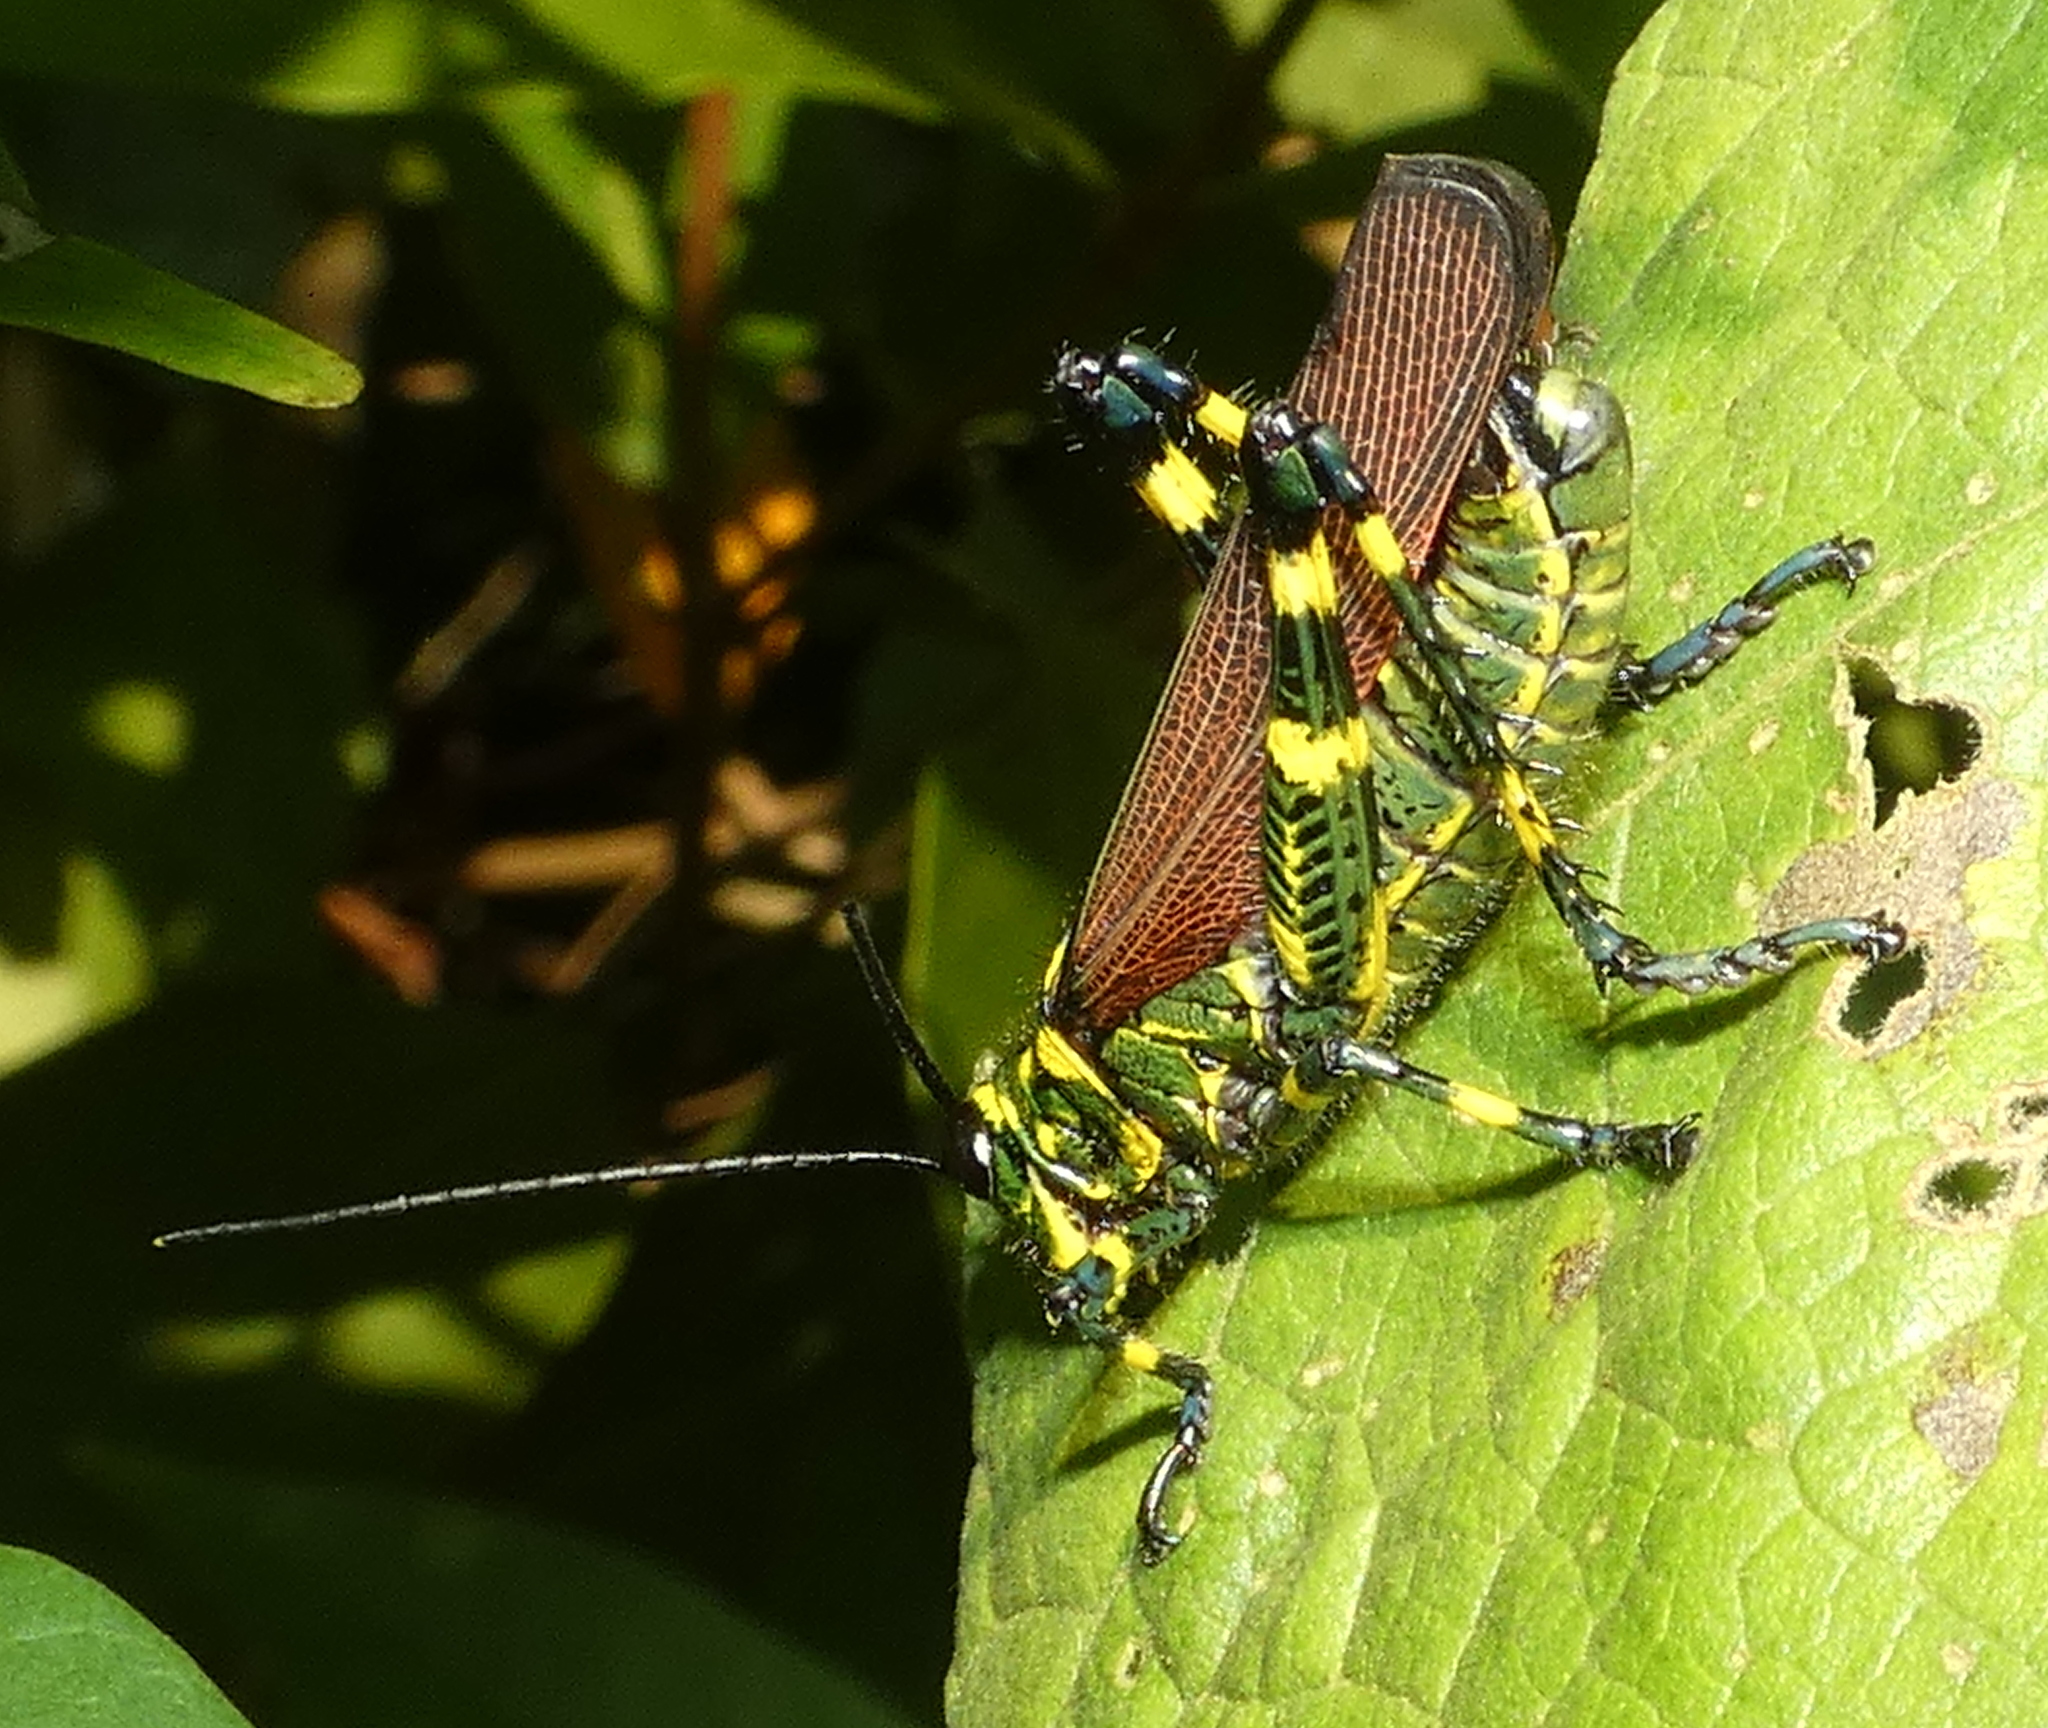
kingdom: Animalia
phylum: Arthropoda
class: Insecta
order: Orthoptera
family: Romaleidae
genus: Chromacris
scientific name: Chromacris speciosa
